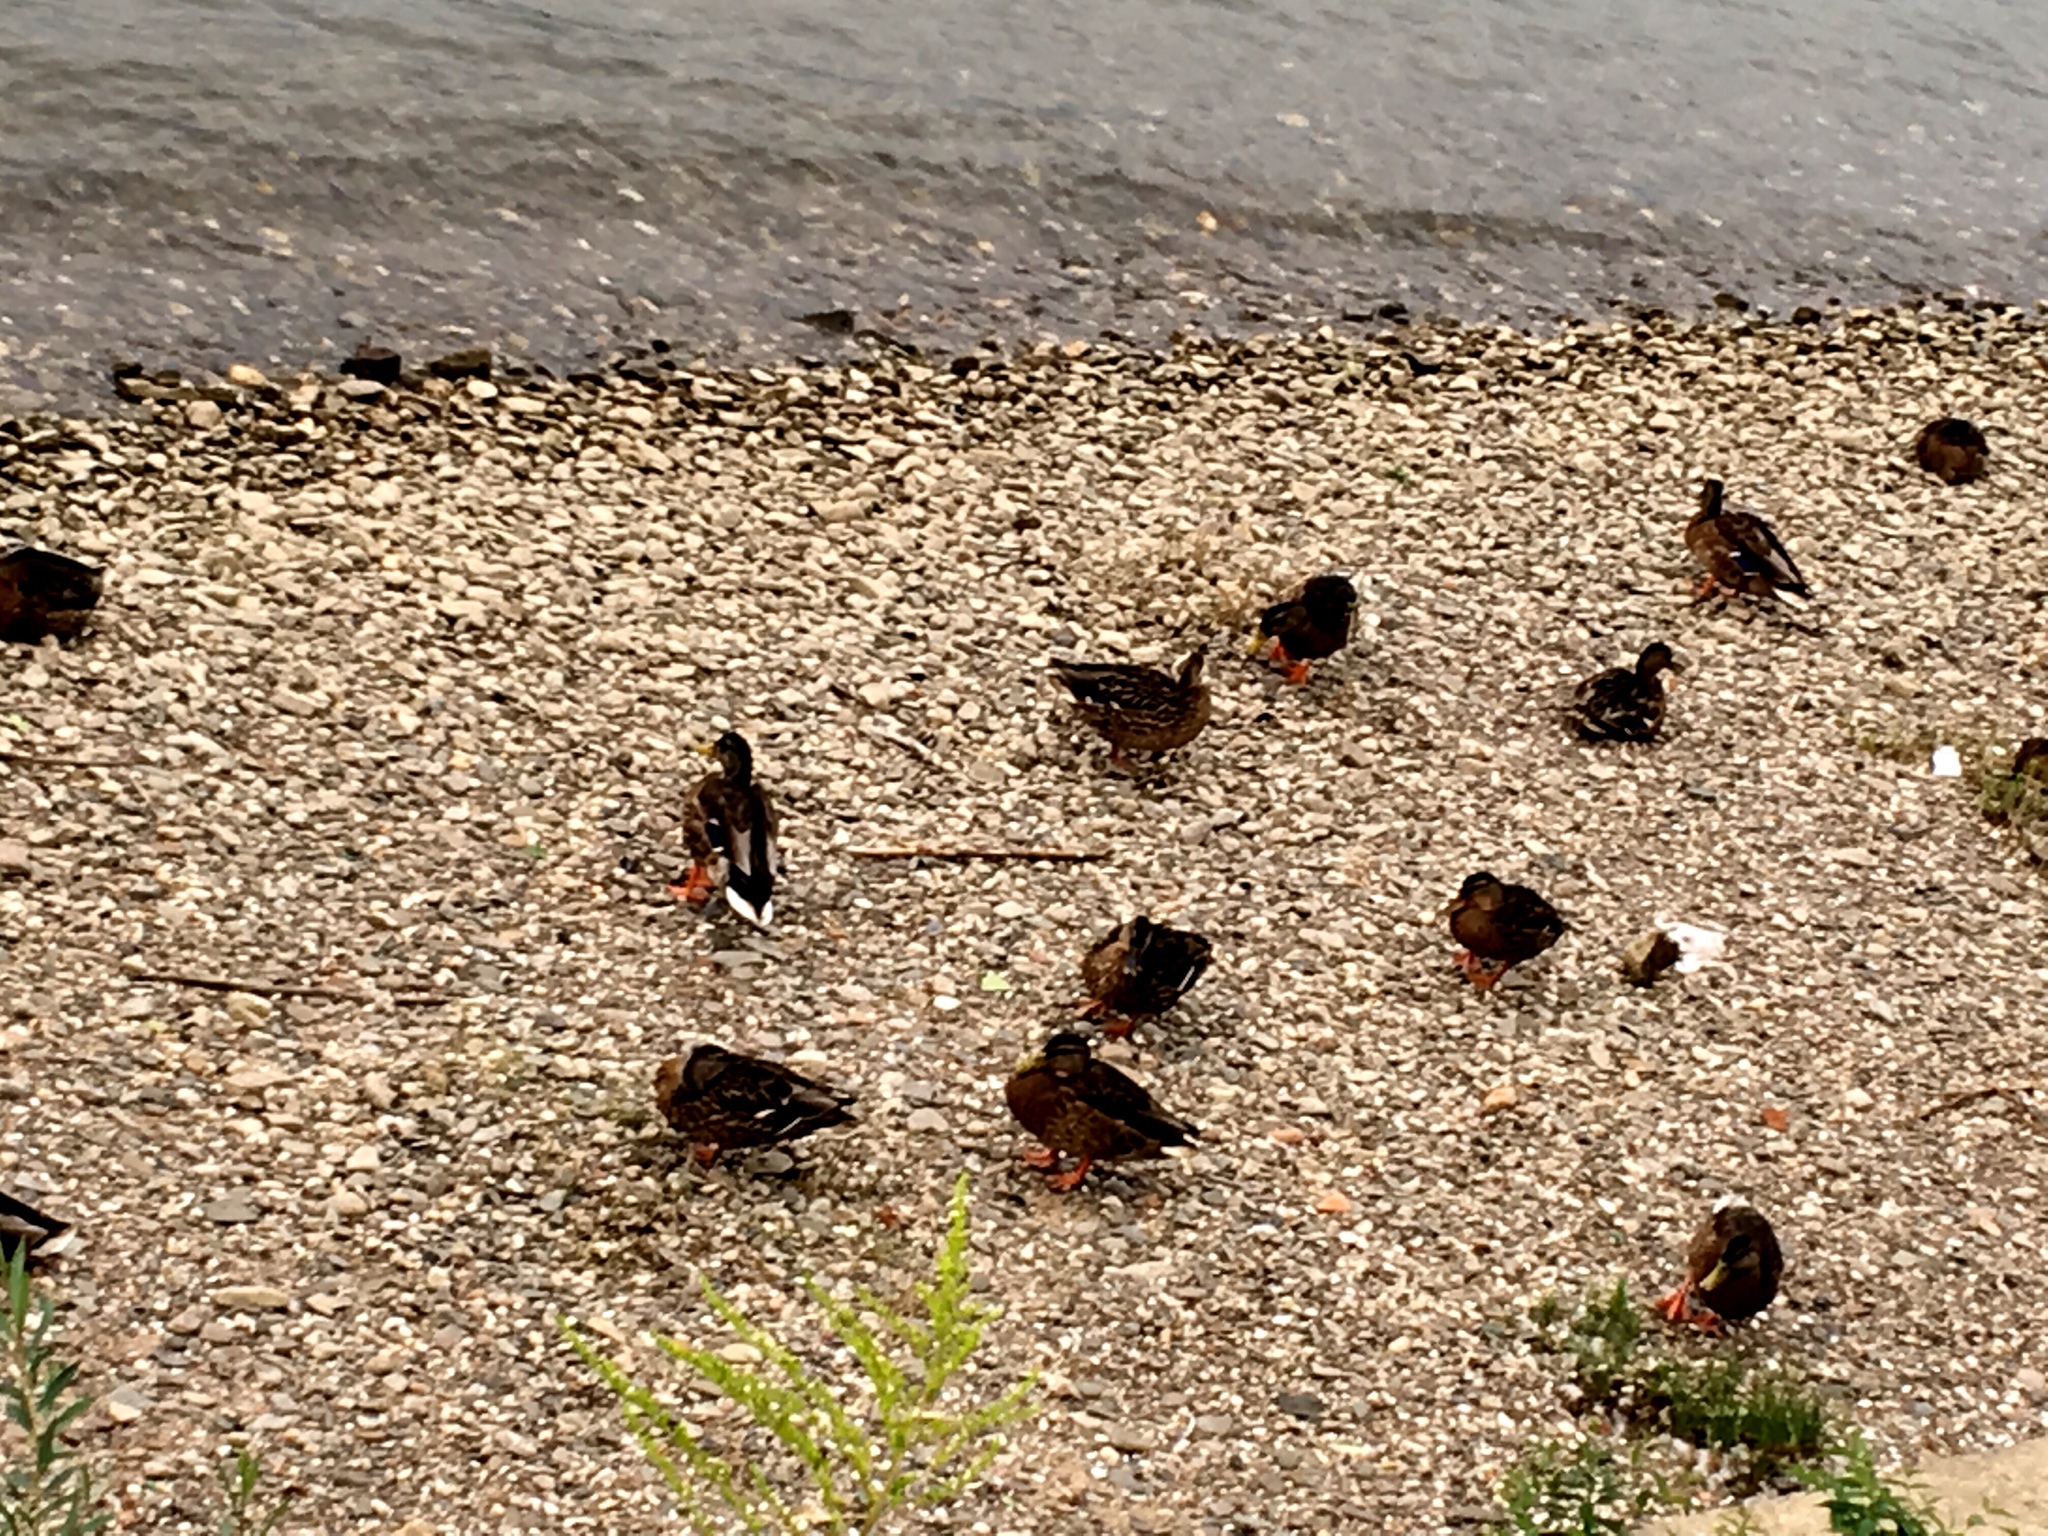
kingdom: Animalia
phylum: Chordata
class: Aves
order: Anseriformes
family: Anatidae
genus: Anas
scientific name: Anas platyrhynchos
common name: Mallard
